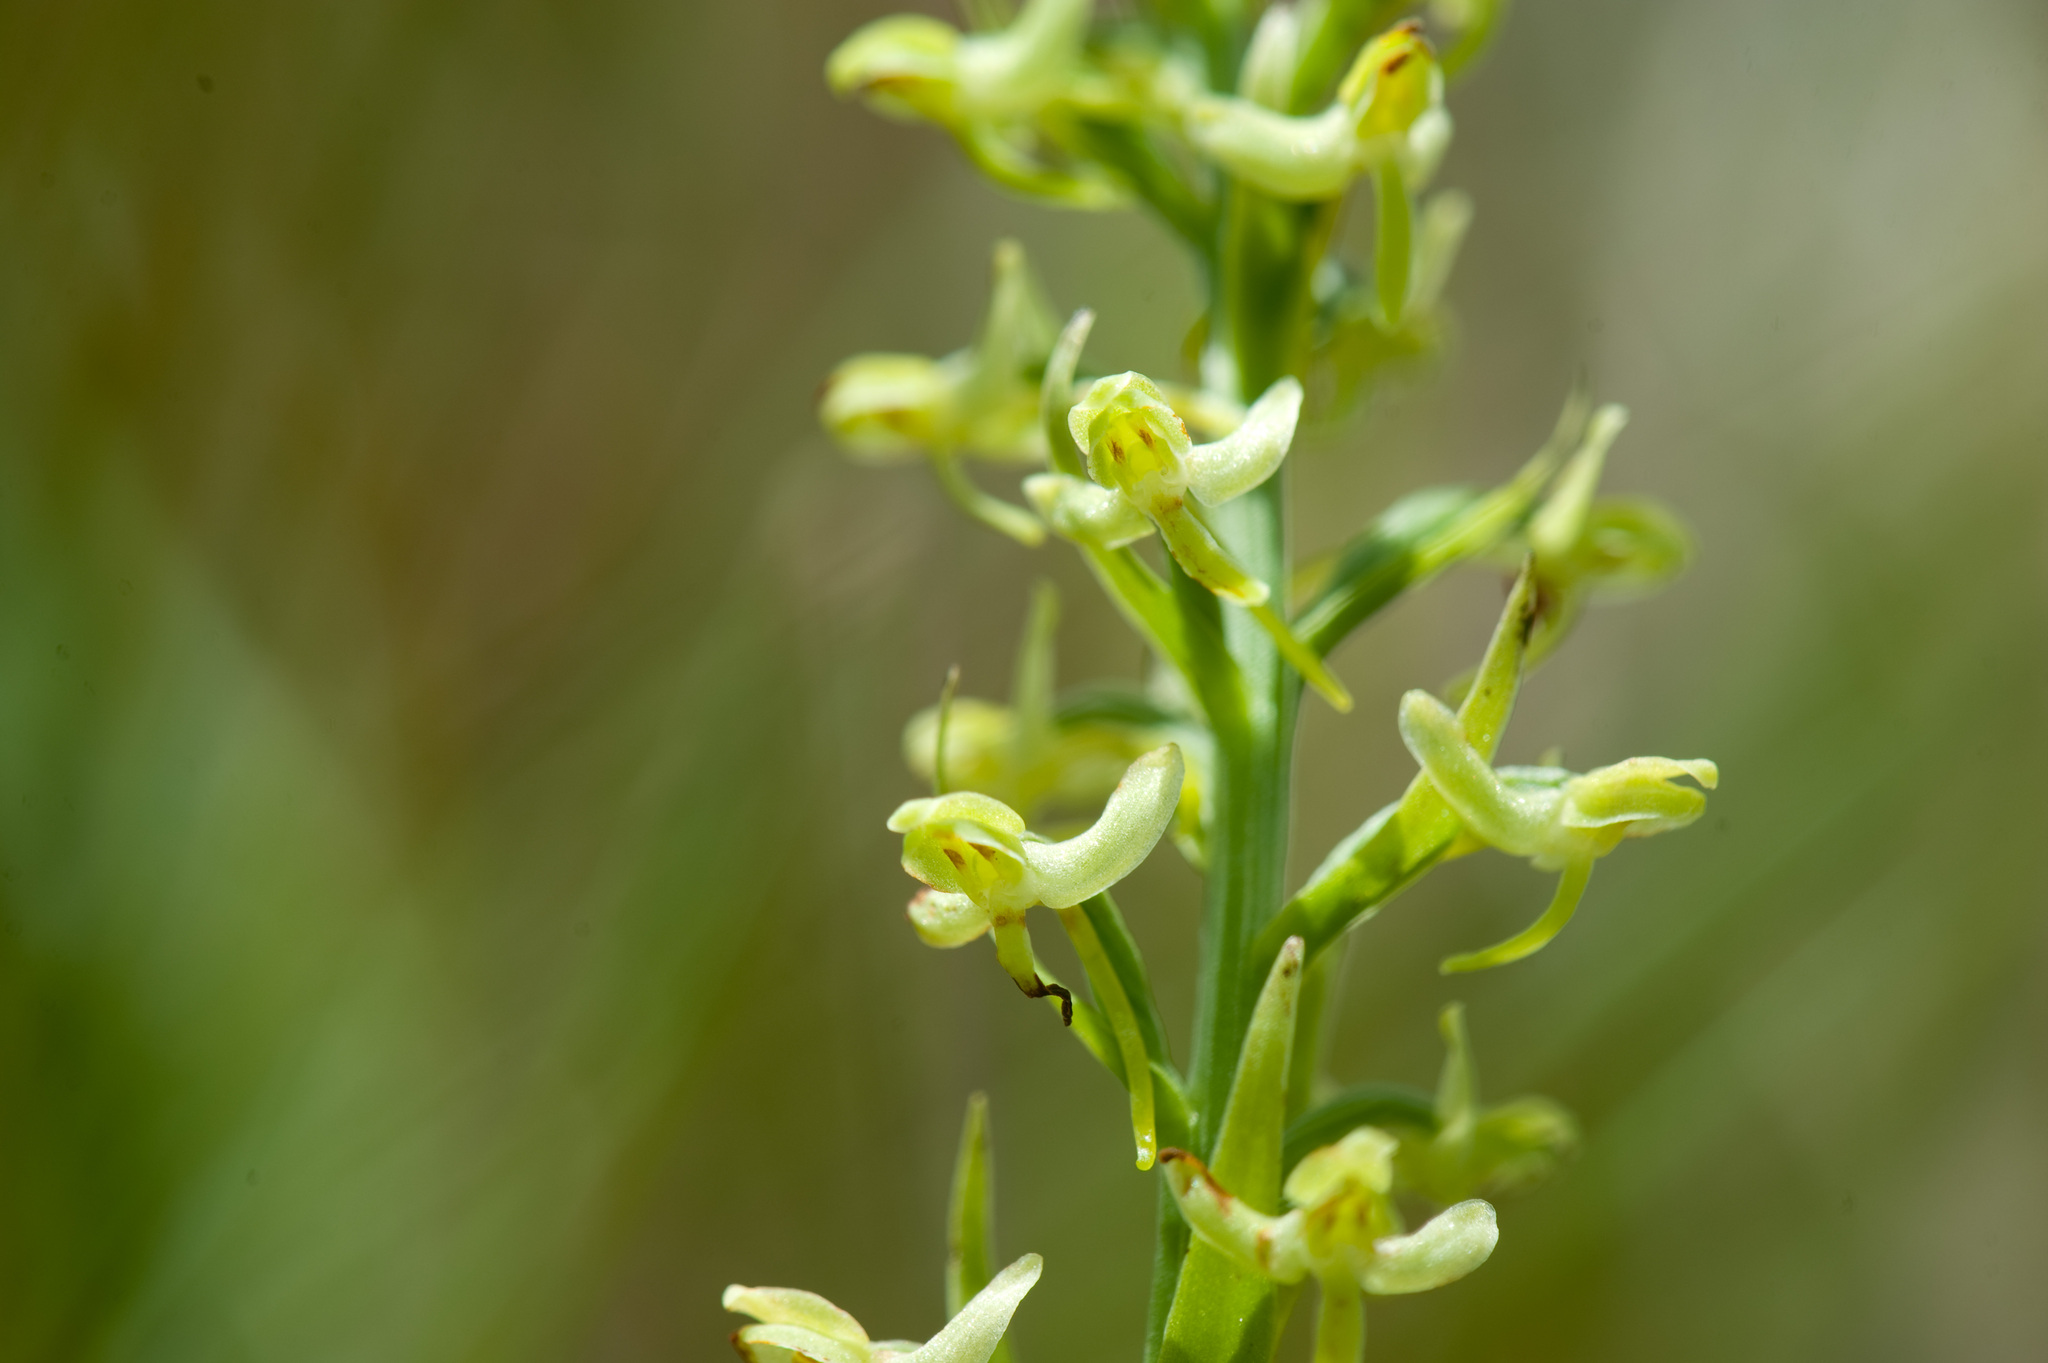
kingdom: Plantae
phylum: Tracheophyta
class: Liliopsida
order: Asparagales
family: Orchidaceae
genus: Platanthera
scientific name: Platanthera longibracteata
